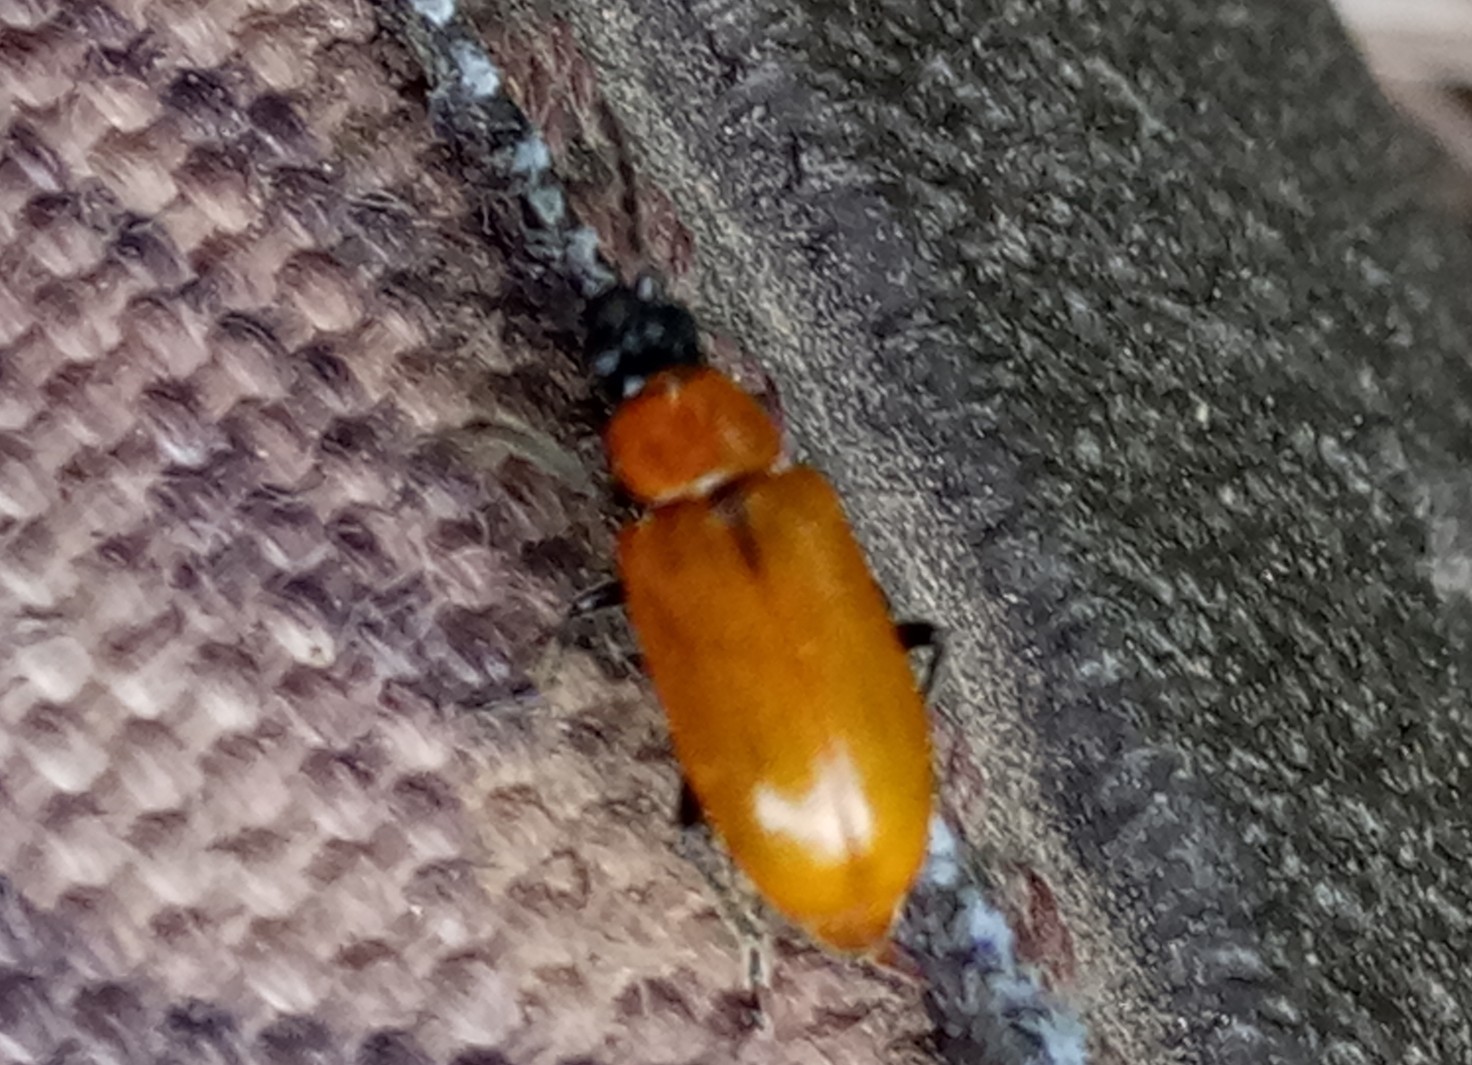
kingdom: Animalia
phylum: Arthropoda
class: Insecta
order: Coleoptera
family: Chrysomelidae
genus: Exosoma
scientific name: Exosoma lusitanicum
